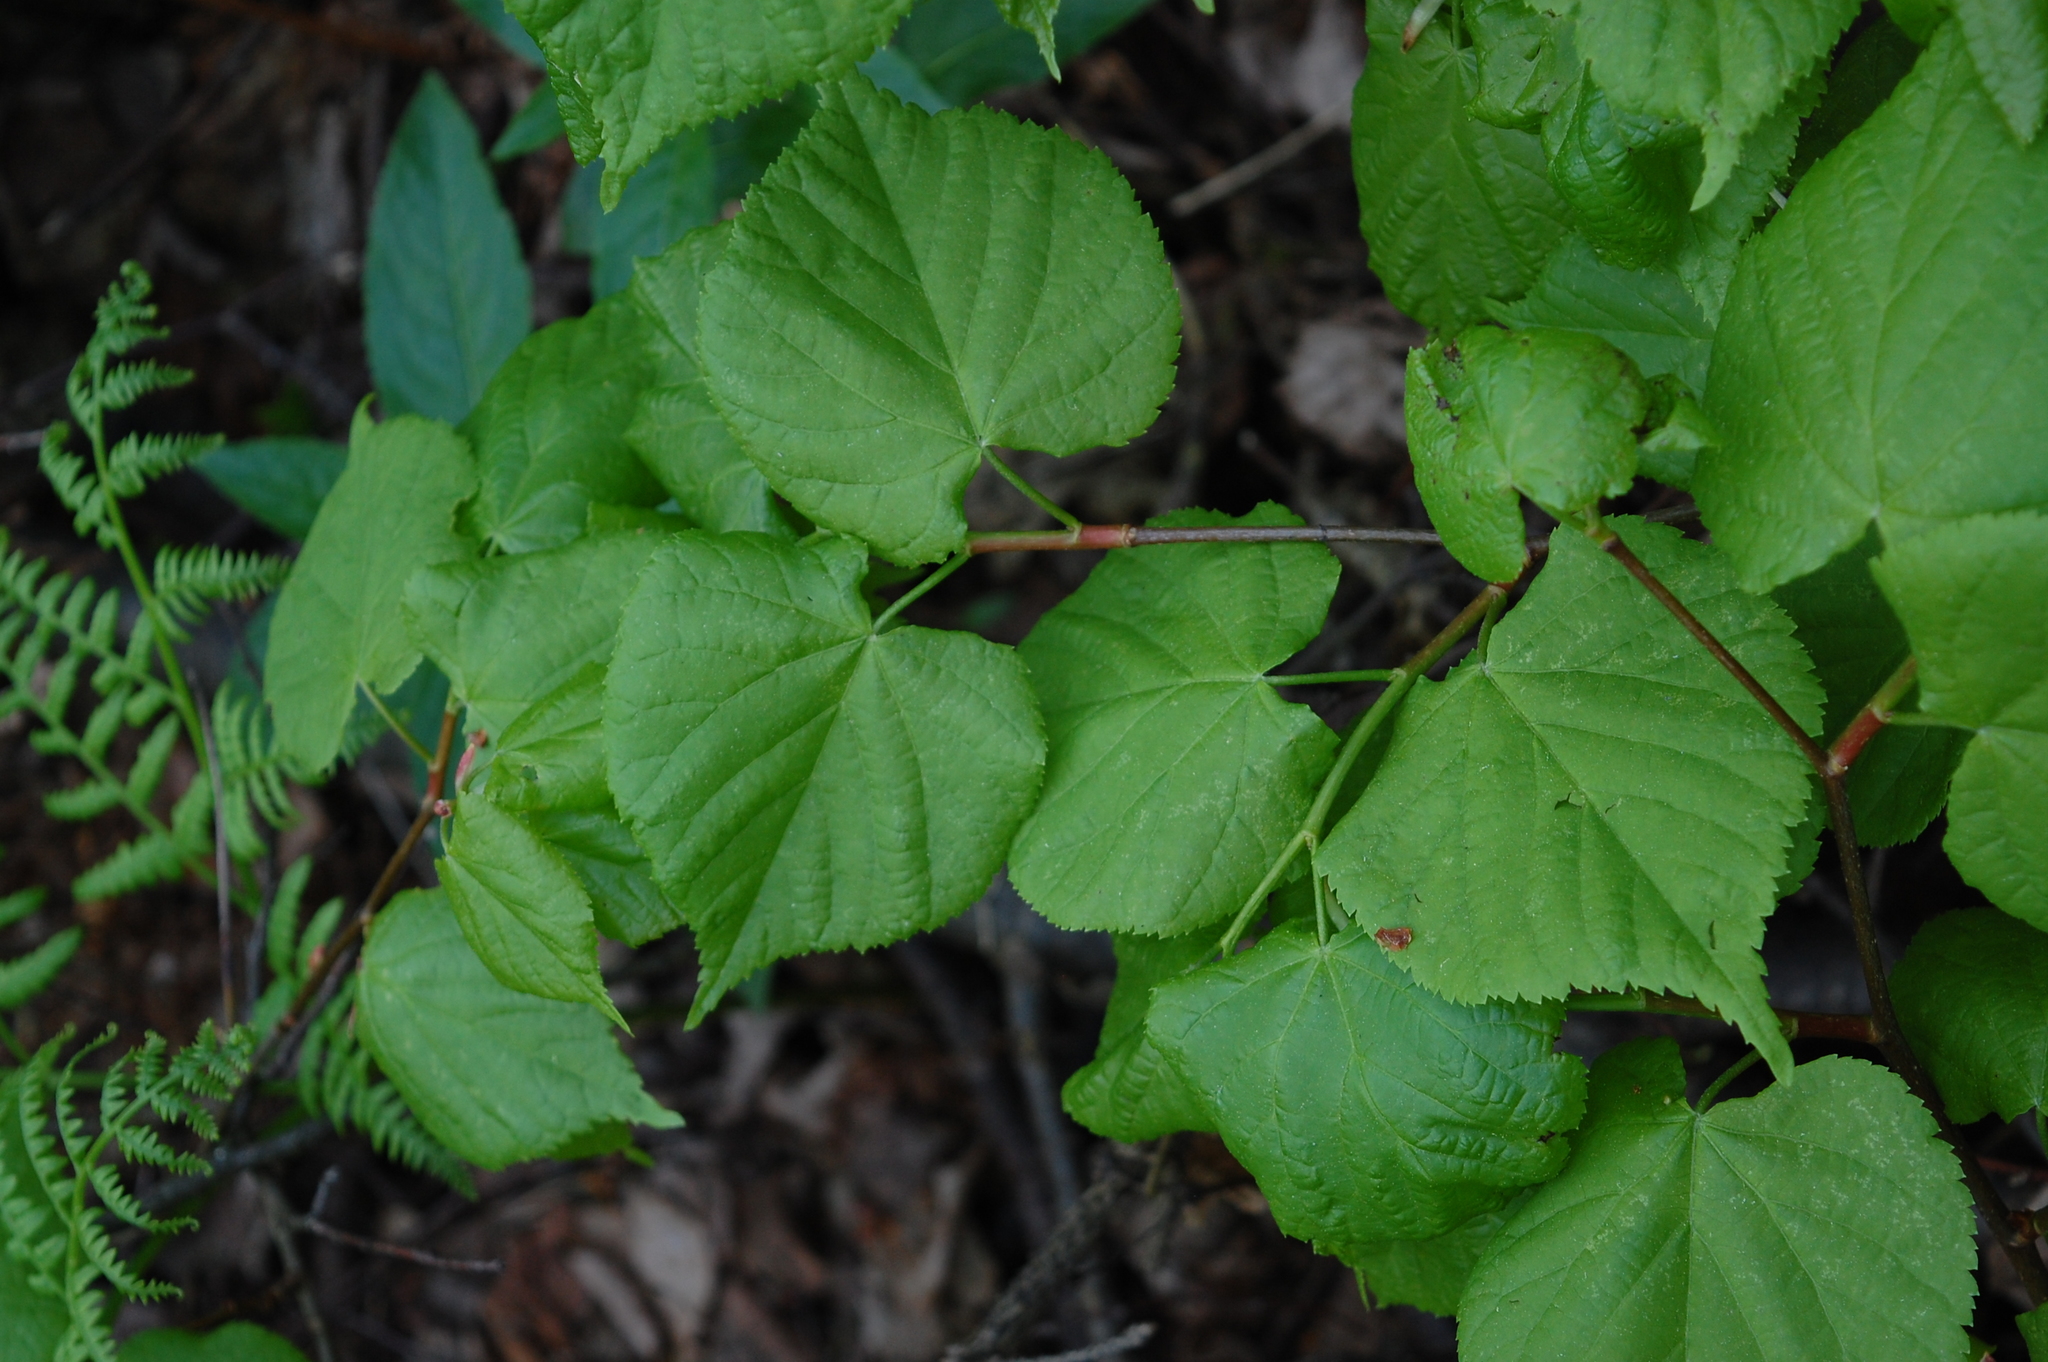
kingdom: Plantae
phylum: Tracheophyta
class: Magnoliopsida
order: Malvales
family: Malvaceae
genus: Tilia
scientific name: Tilia cordata
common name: Small-leaved lime
